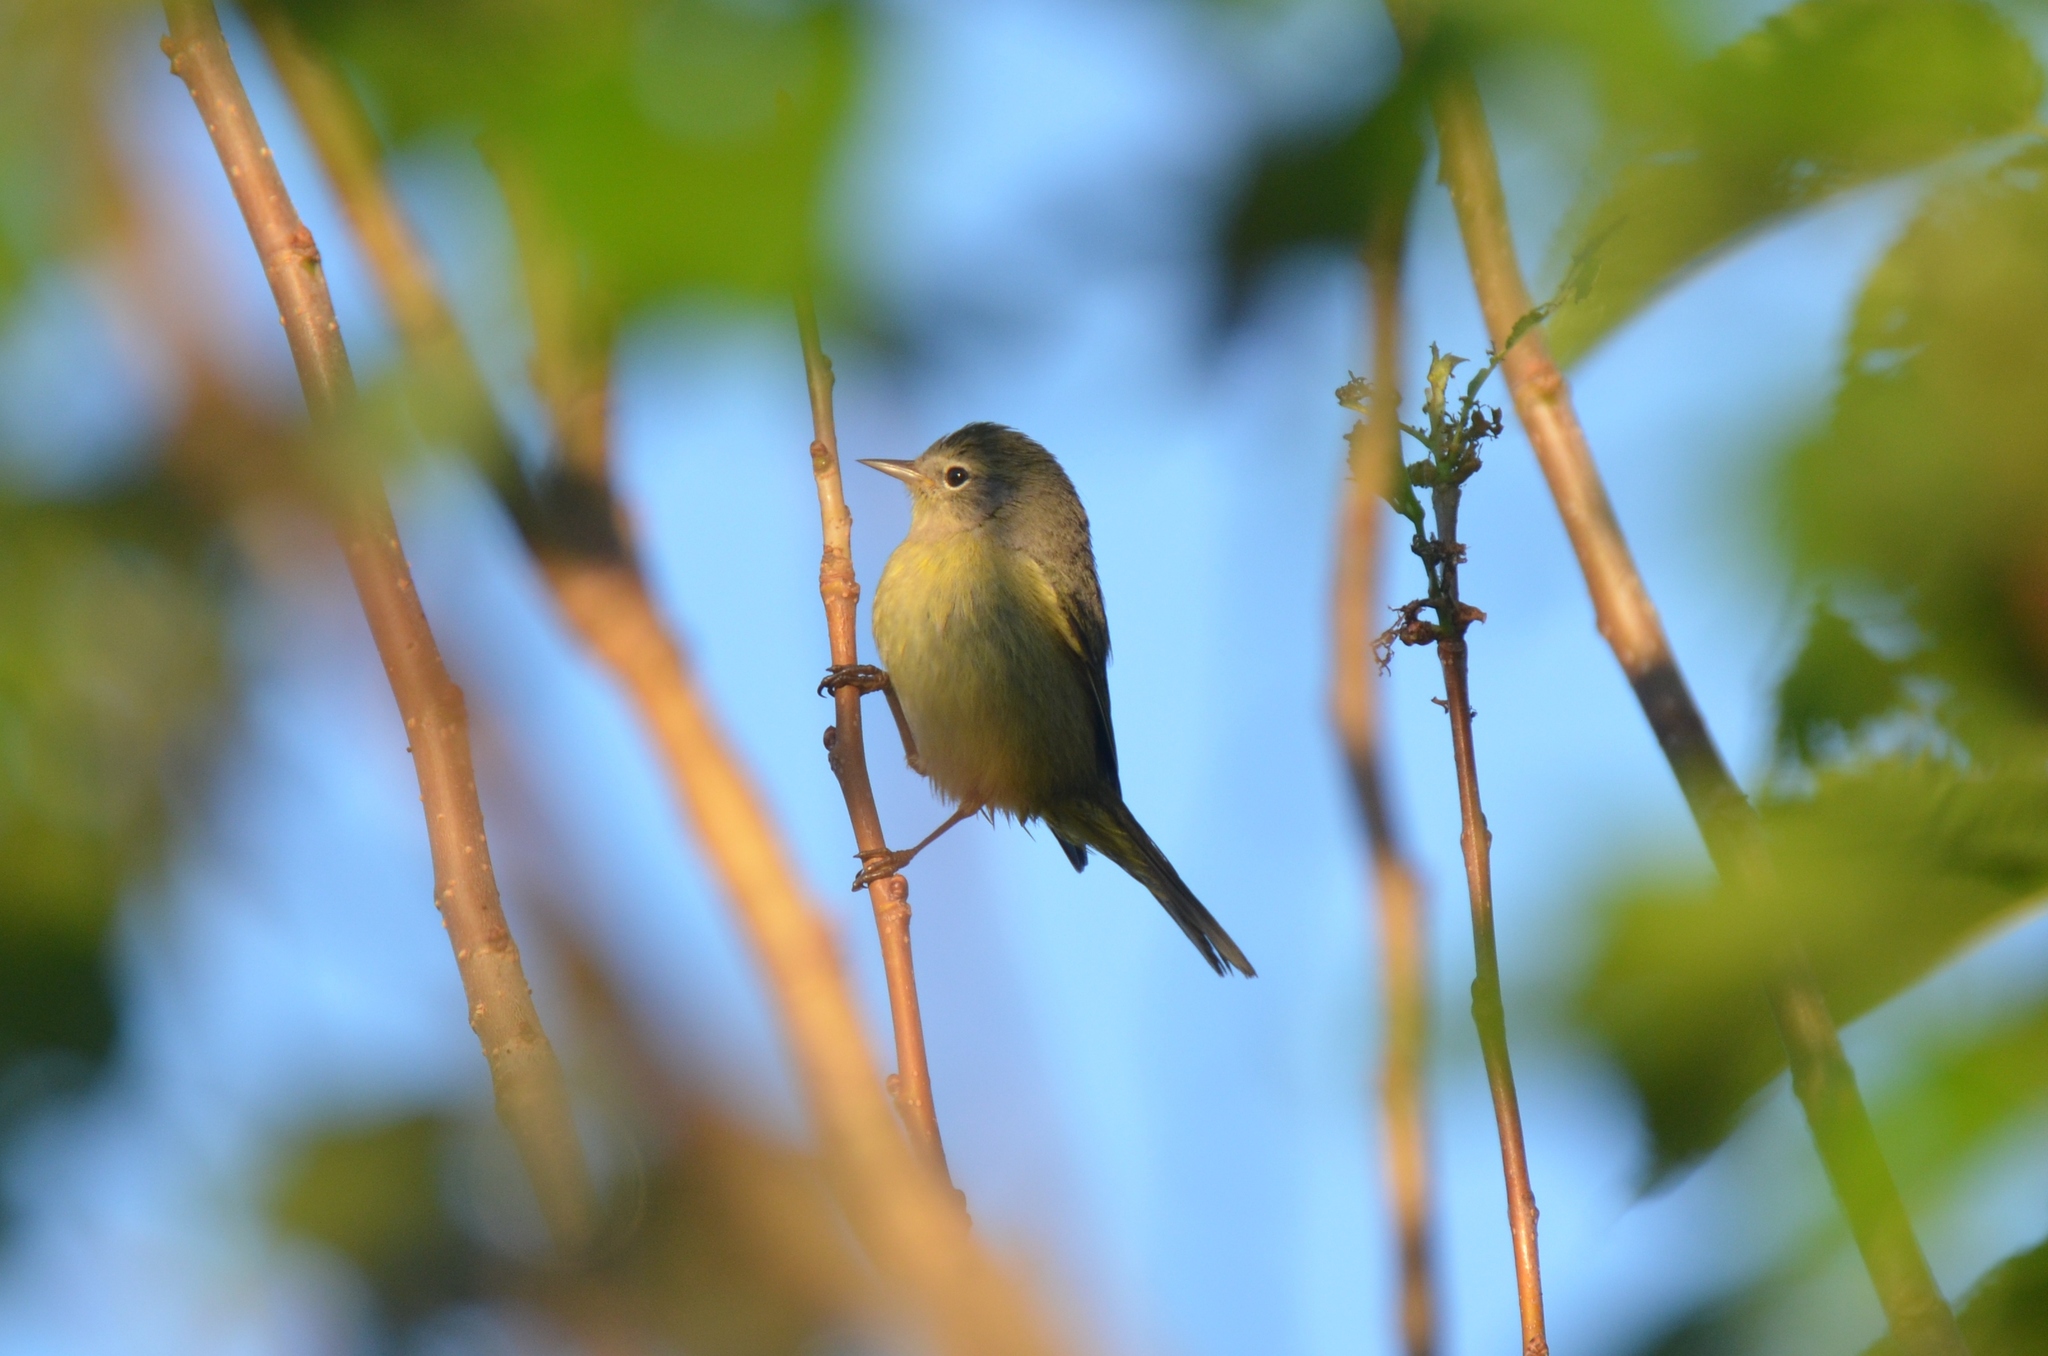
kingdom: Animalia
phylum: Chordata
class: Aves
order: Passeriformes
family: Parulidae
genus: Leiothlypis
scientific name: Leiothlypis celata
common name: Orange-crowned warbler
